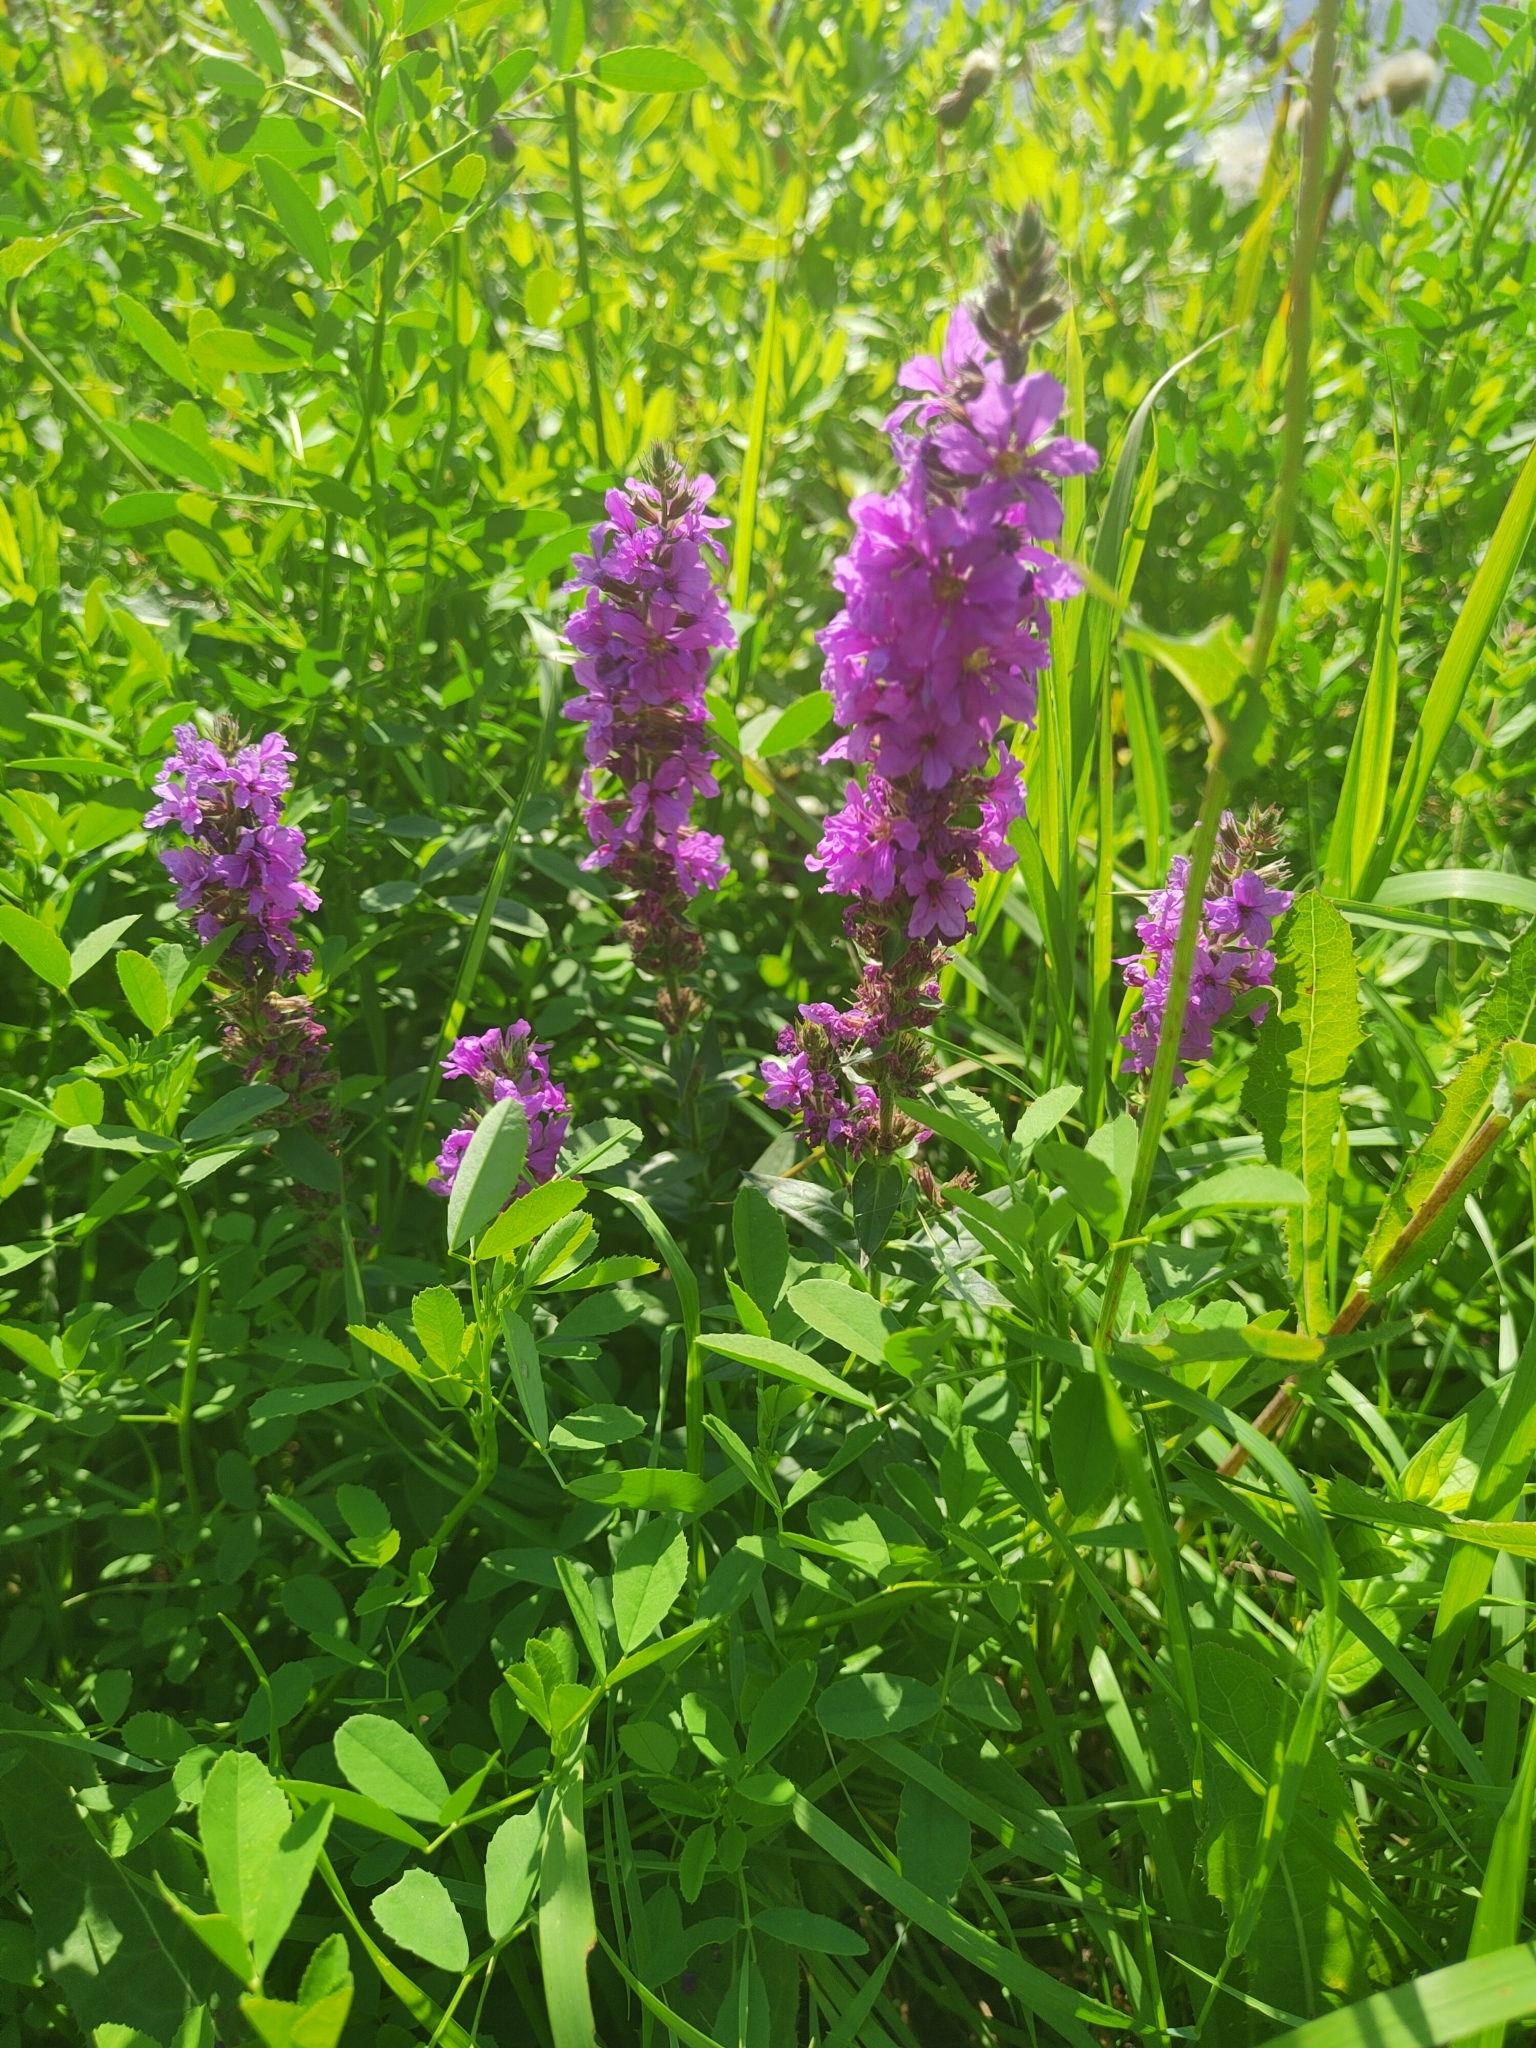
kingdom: Plantae
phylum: Tracheophyta
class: Magnoliopsida
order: Myrtales
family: Lythraceae
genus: Lythrum
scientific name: Lythrum salicaria
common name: Purple loosestrife
